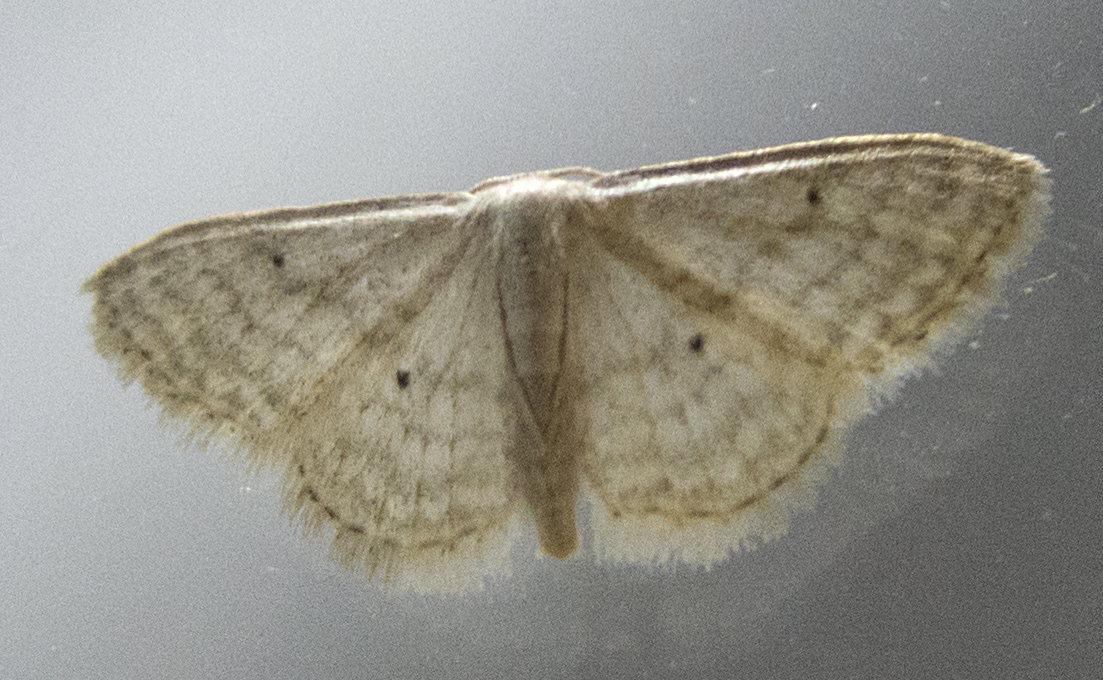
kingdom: Animalia
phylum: Arthropoda
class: Insecta
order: Lepidoptera
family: Geometridae
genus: Scopula
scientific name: Scopula minorata
